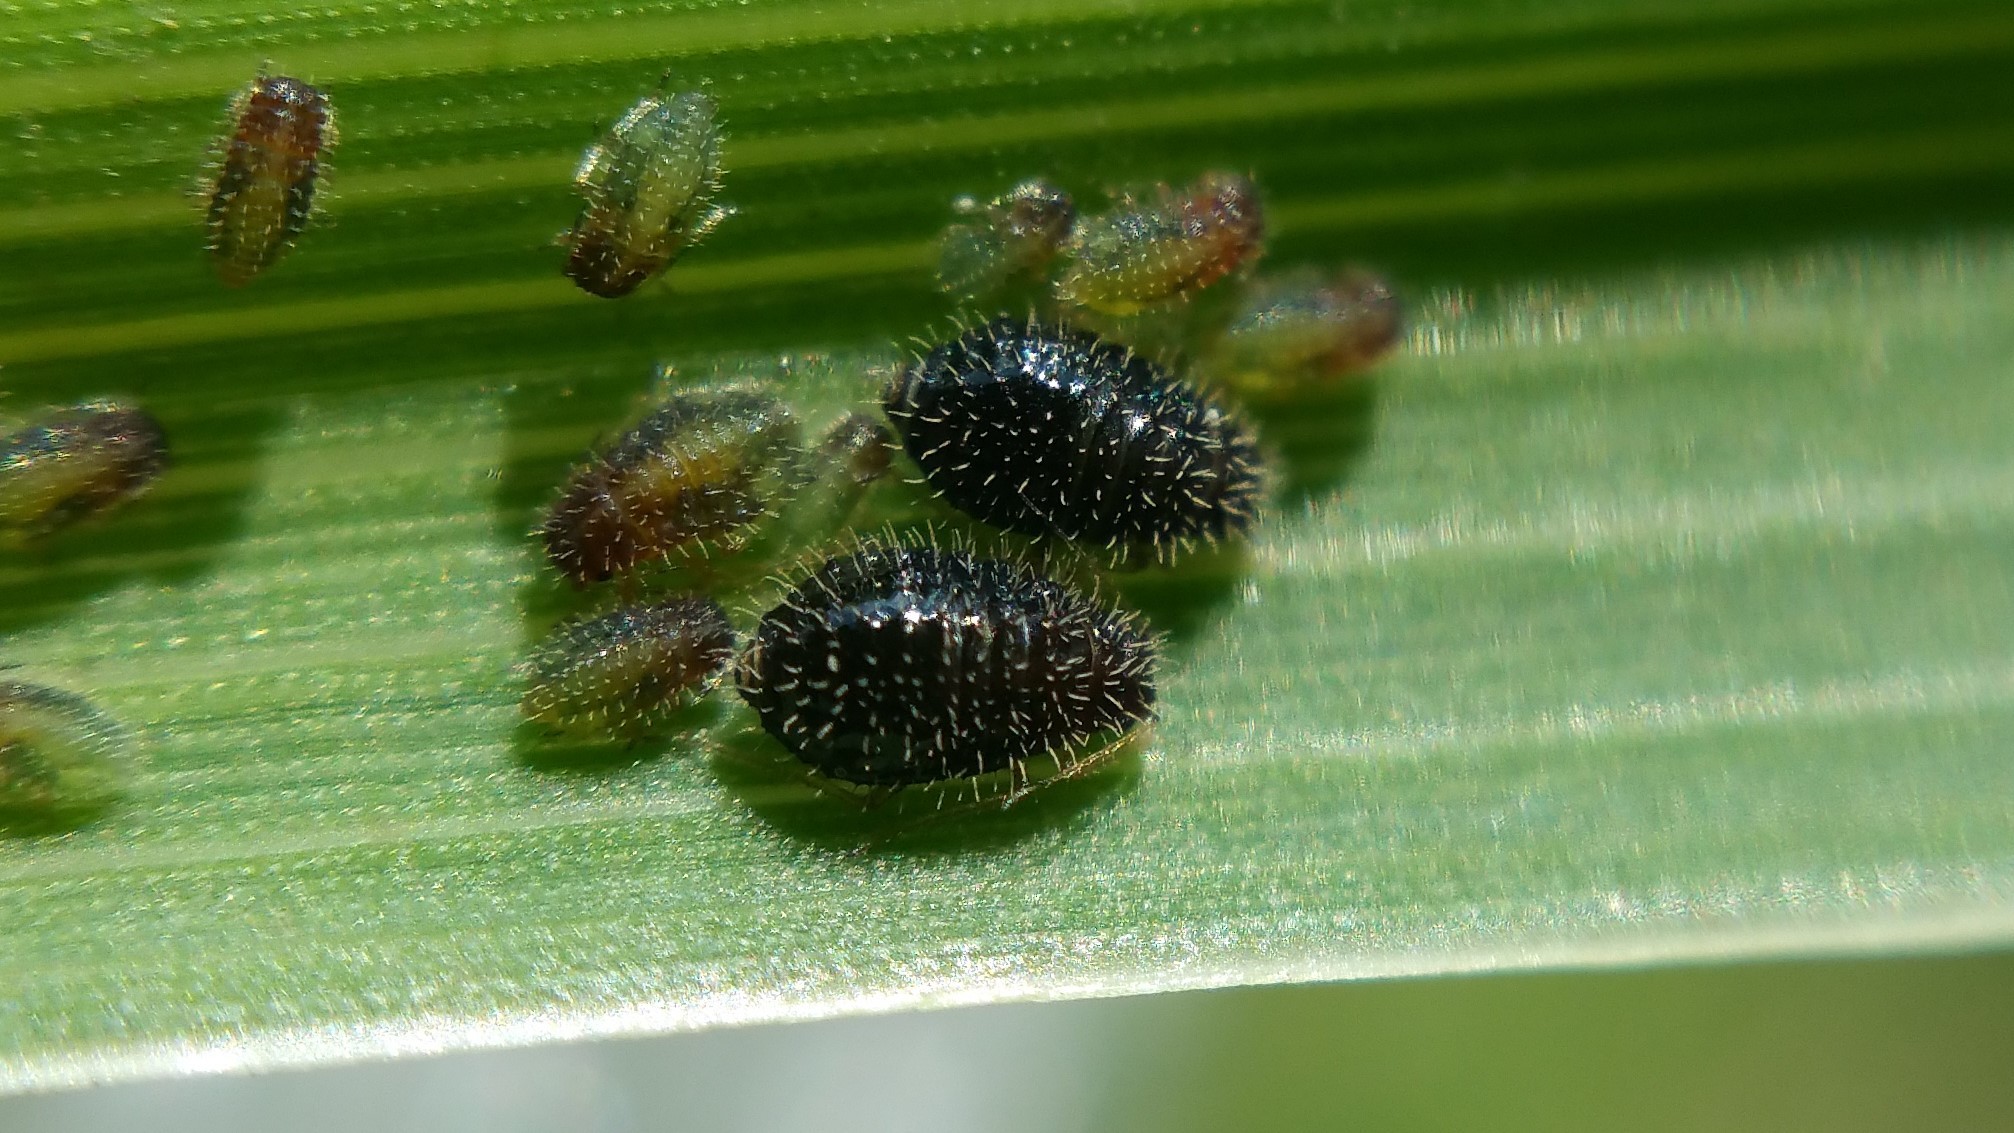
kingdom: Animalia
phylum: Arthropoda
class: Insecta
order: Hemiptera
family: Aphididae
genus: Sipha
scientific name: Sipha maydis
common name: Aphid
